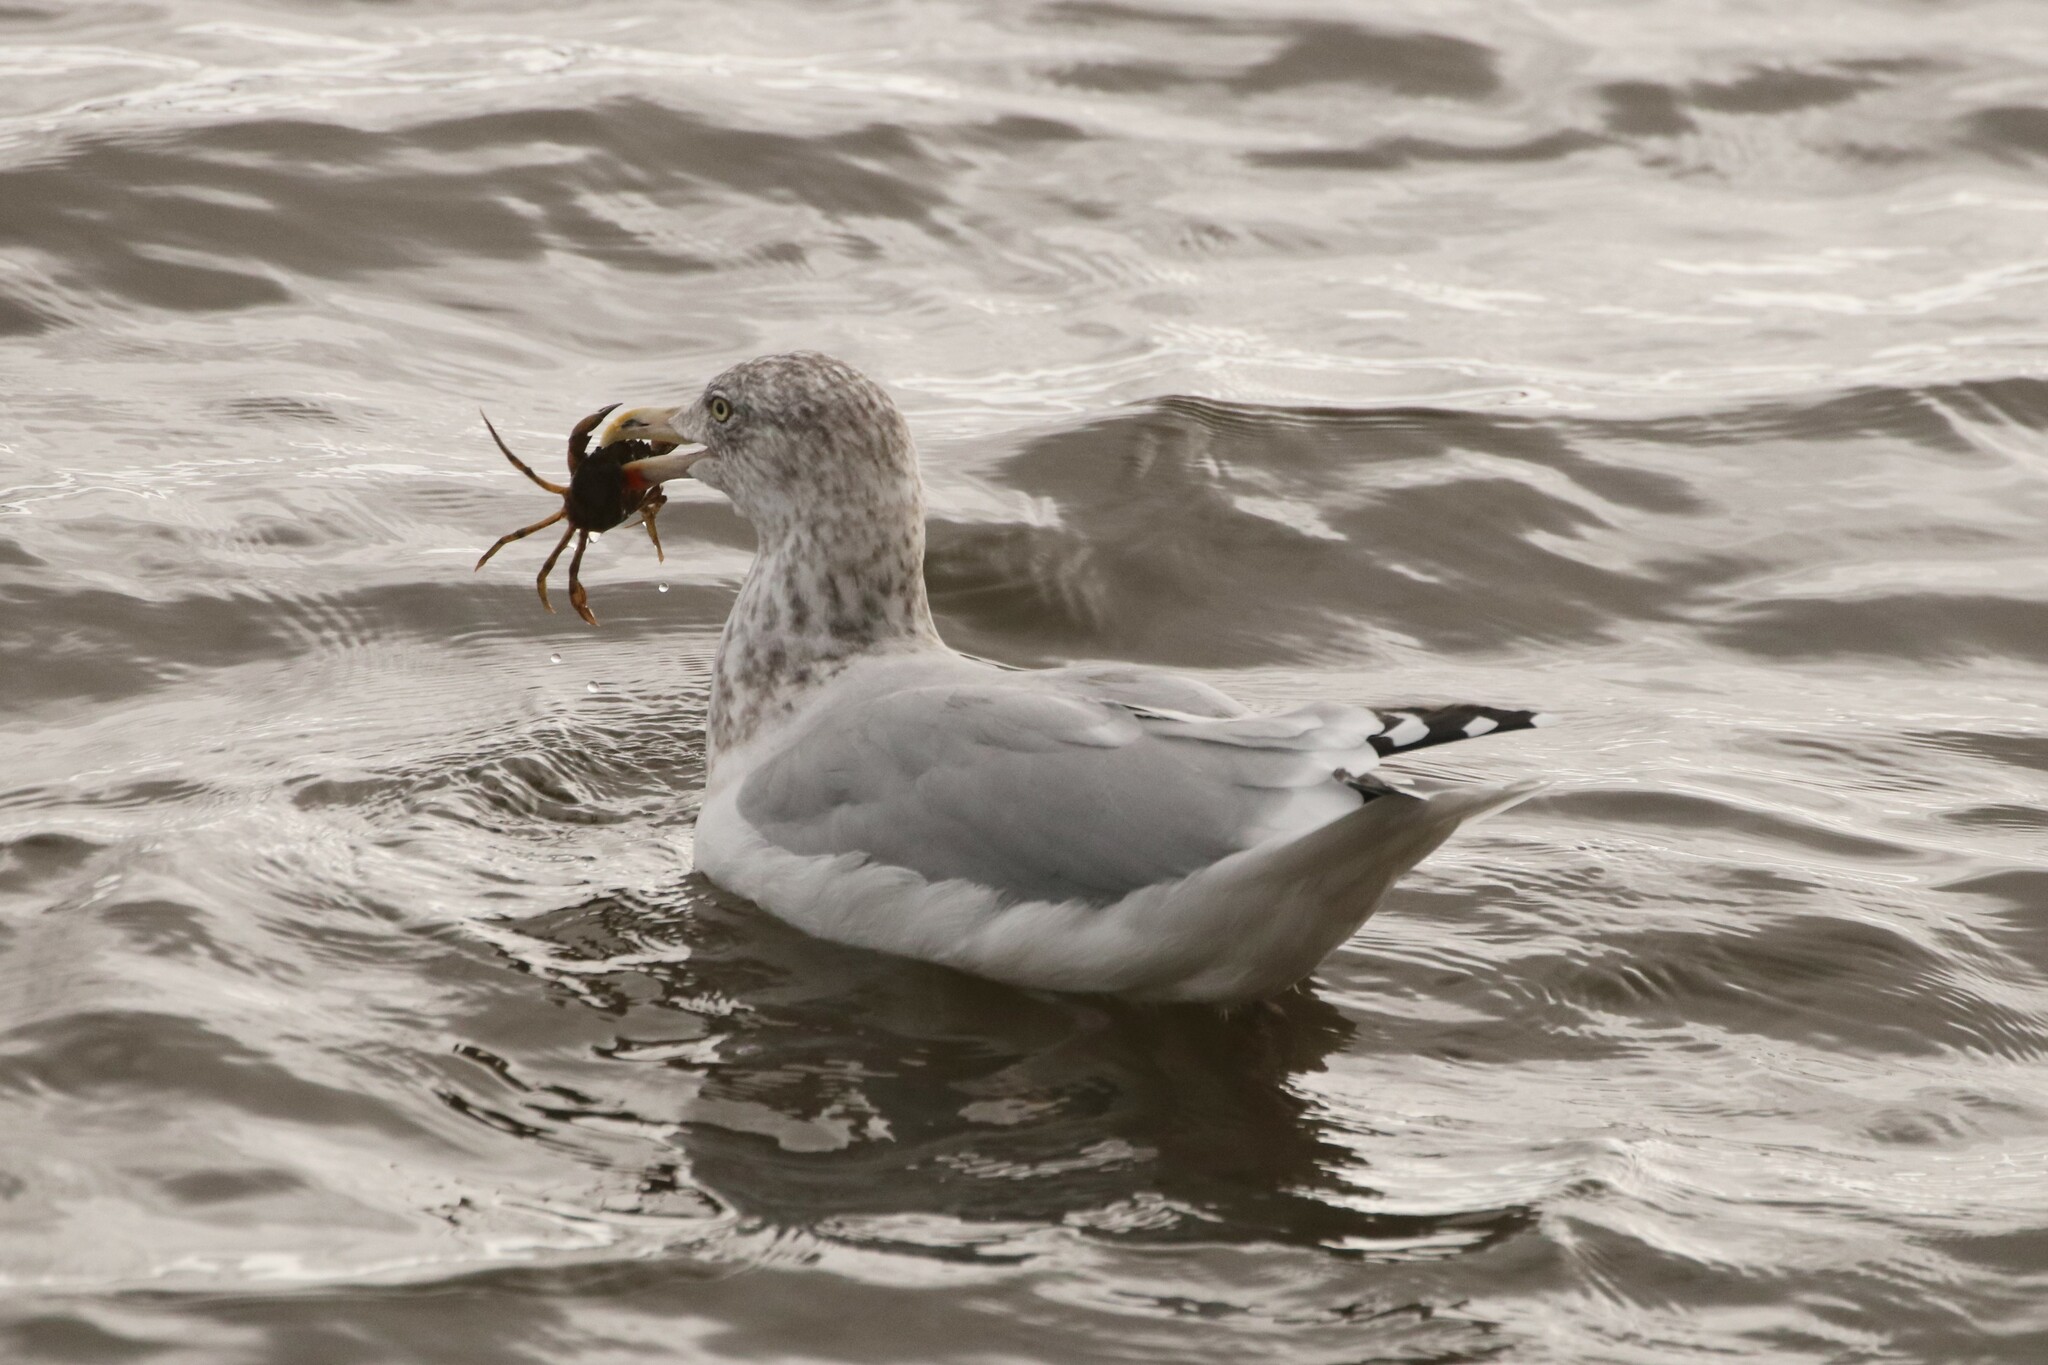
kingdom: Animalia
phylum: Chordata
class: Aves
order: Charadriiformes
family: Laridae
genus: Larus
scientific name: Larus argentatus
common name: Herring gull
